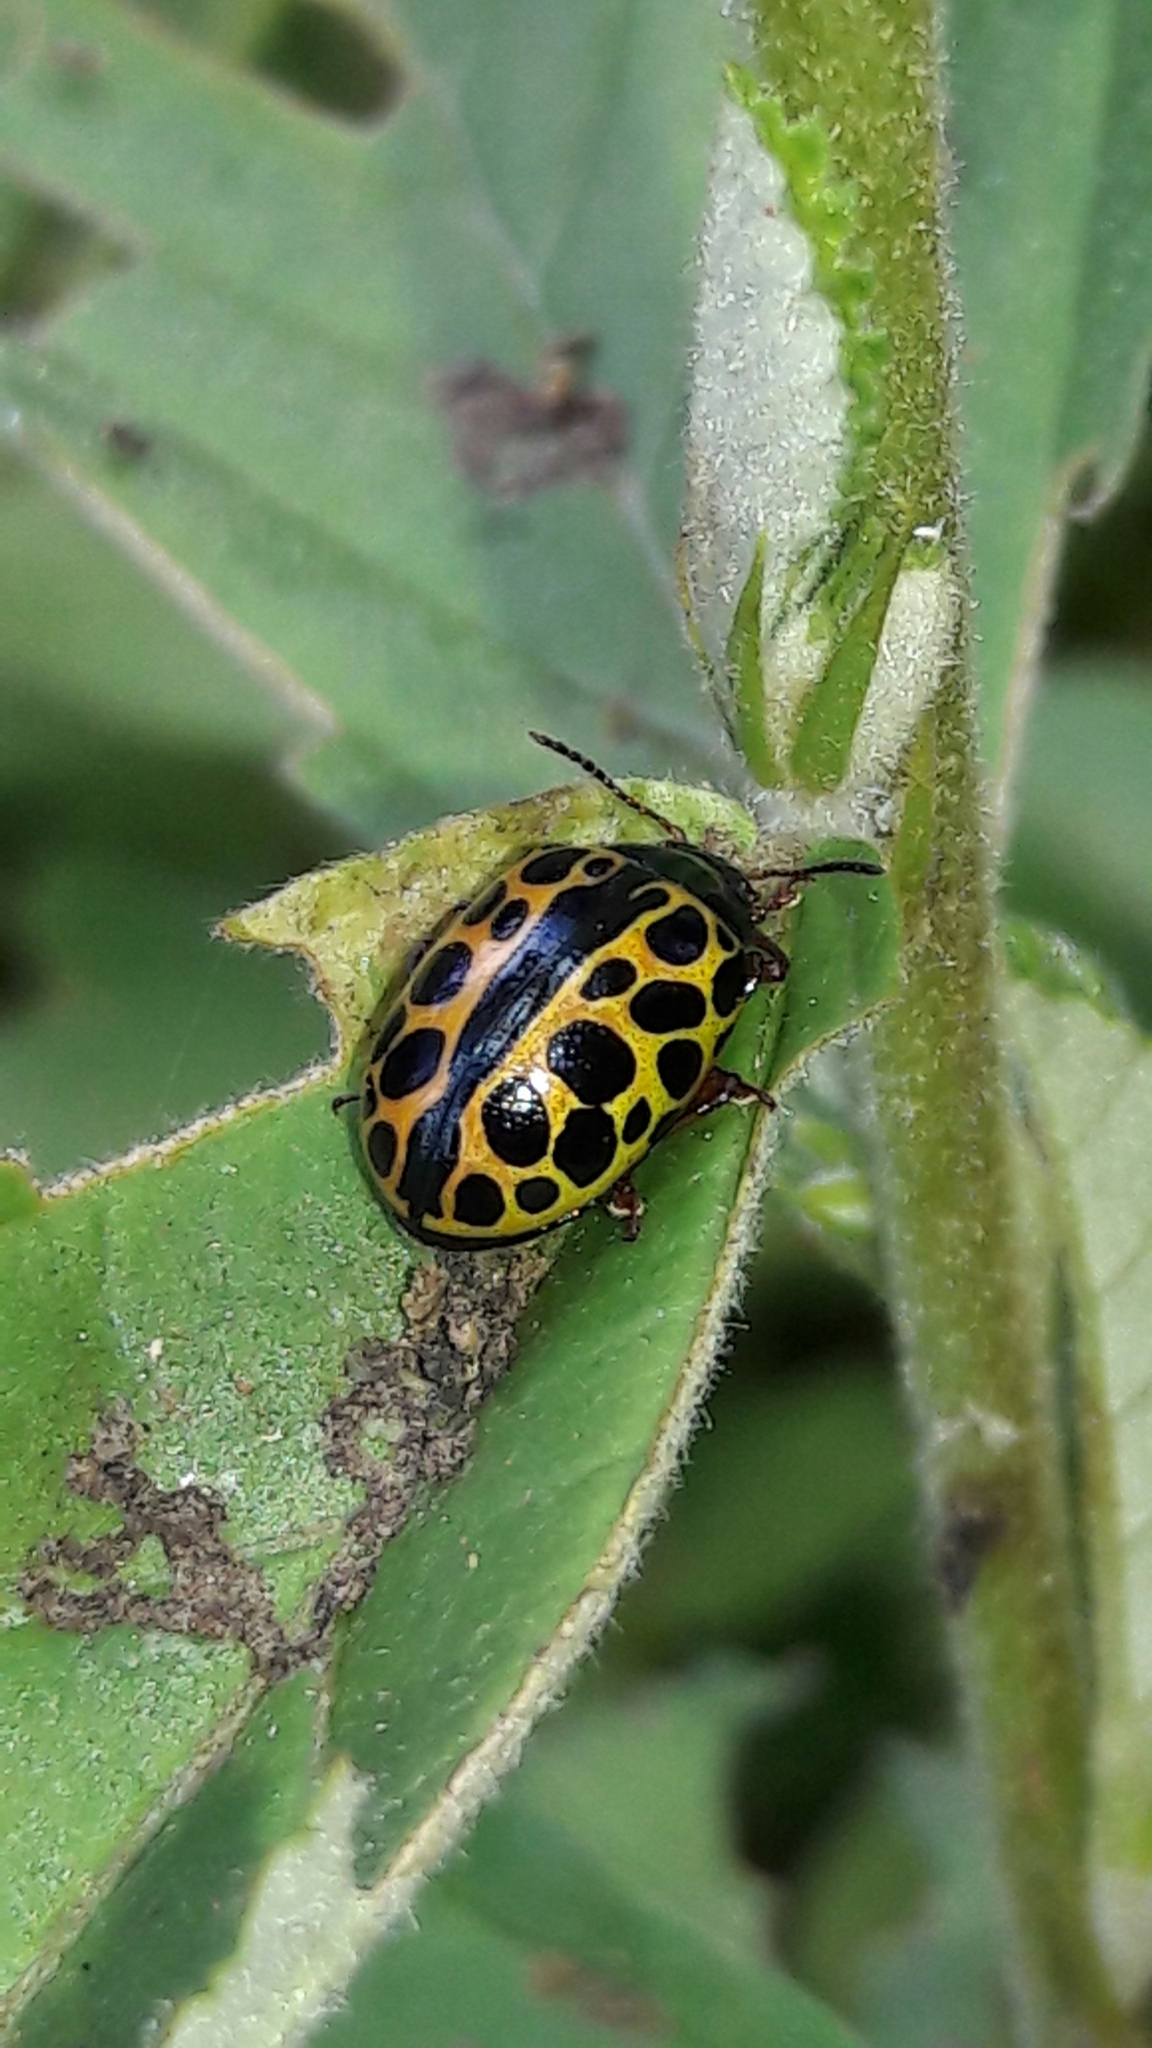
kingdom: Animalia
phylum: Arthropoda
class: Insecta
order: Coleoptera
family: Chrysomelidae
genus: Calligrapha
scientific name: Calligrapha polyspila
